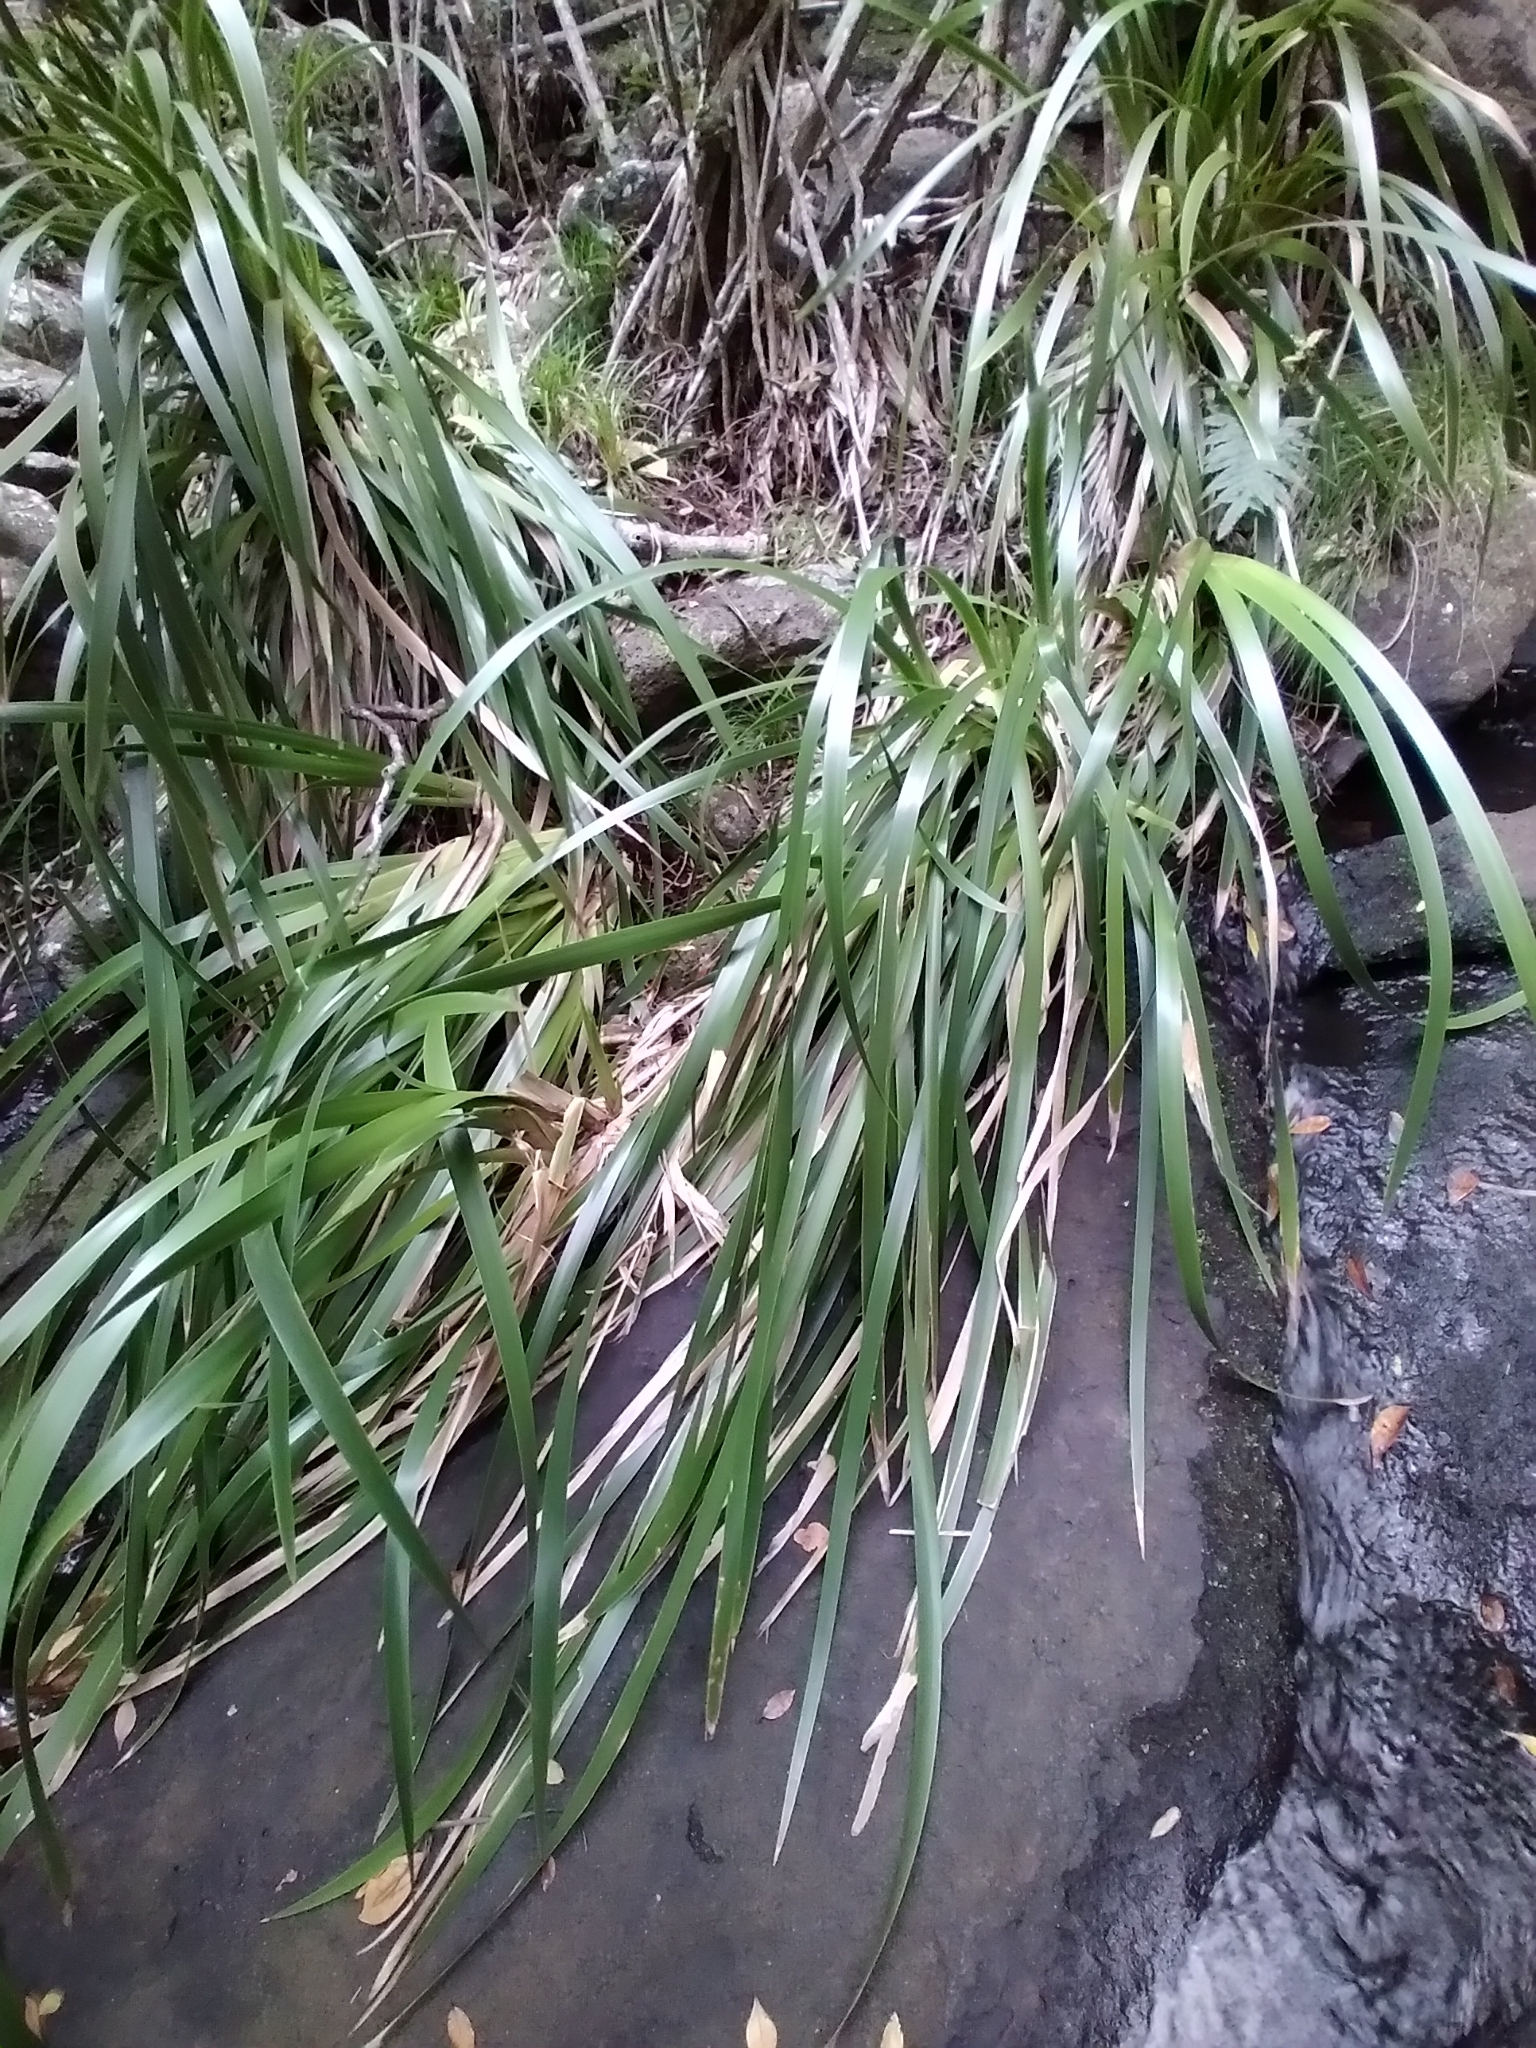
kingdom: Plantae
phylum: Tracheophyta
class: Liliopsida
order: Poales
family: Cyperaceae
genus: Machaerina
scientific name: Machaerina insularis
